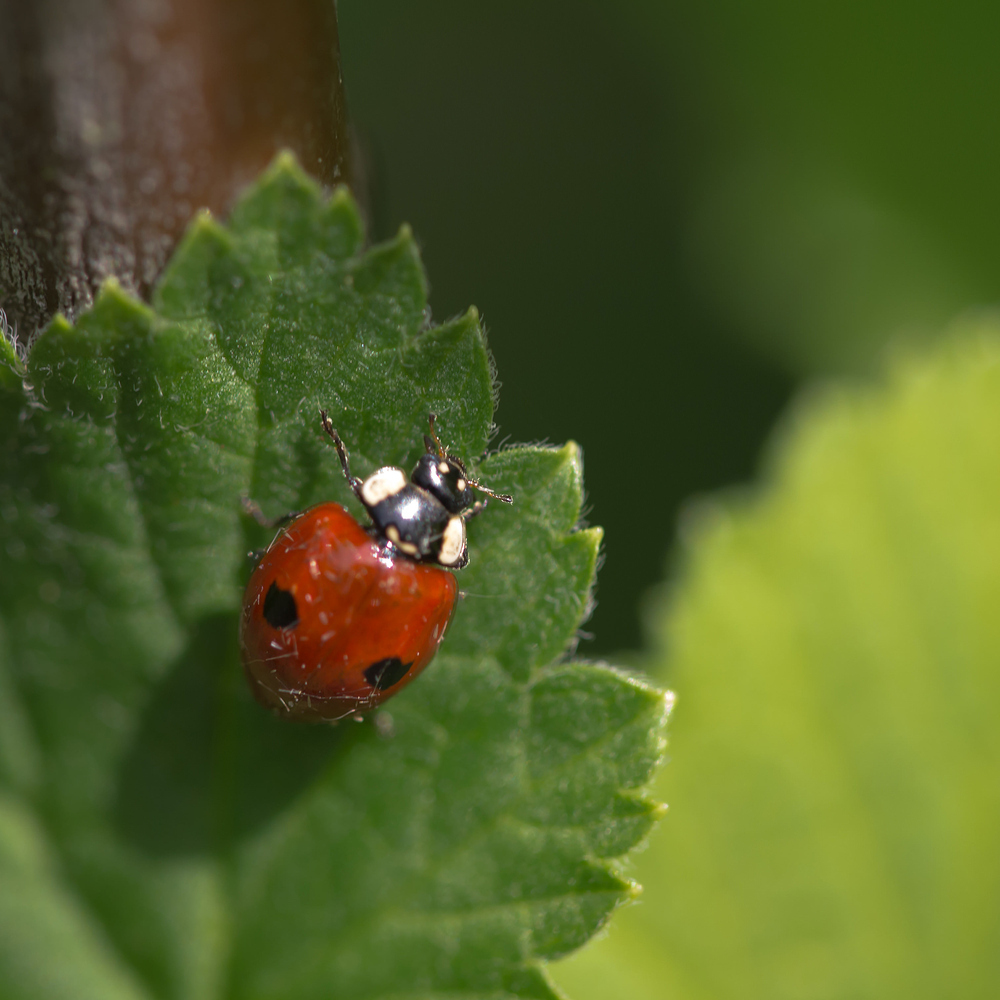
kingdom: Animalia
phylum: Arthropoda
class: Insecta
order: Coleoptera
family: Coccinellidae
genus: Adalia
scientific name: Adalia bipunctata
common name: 2-spot ladybird
